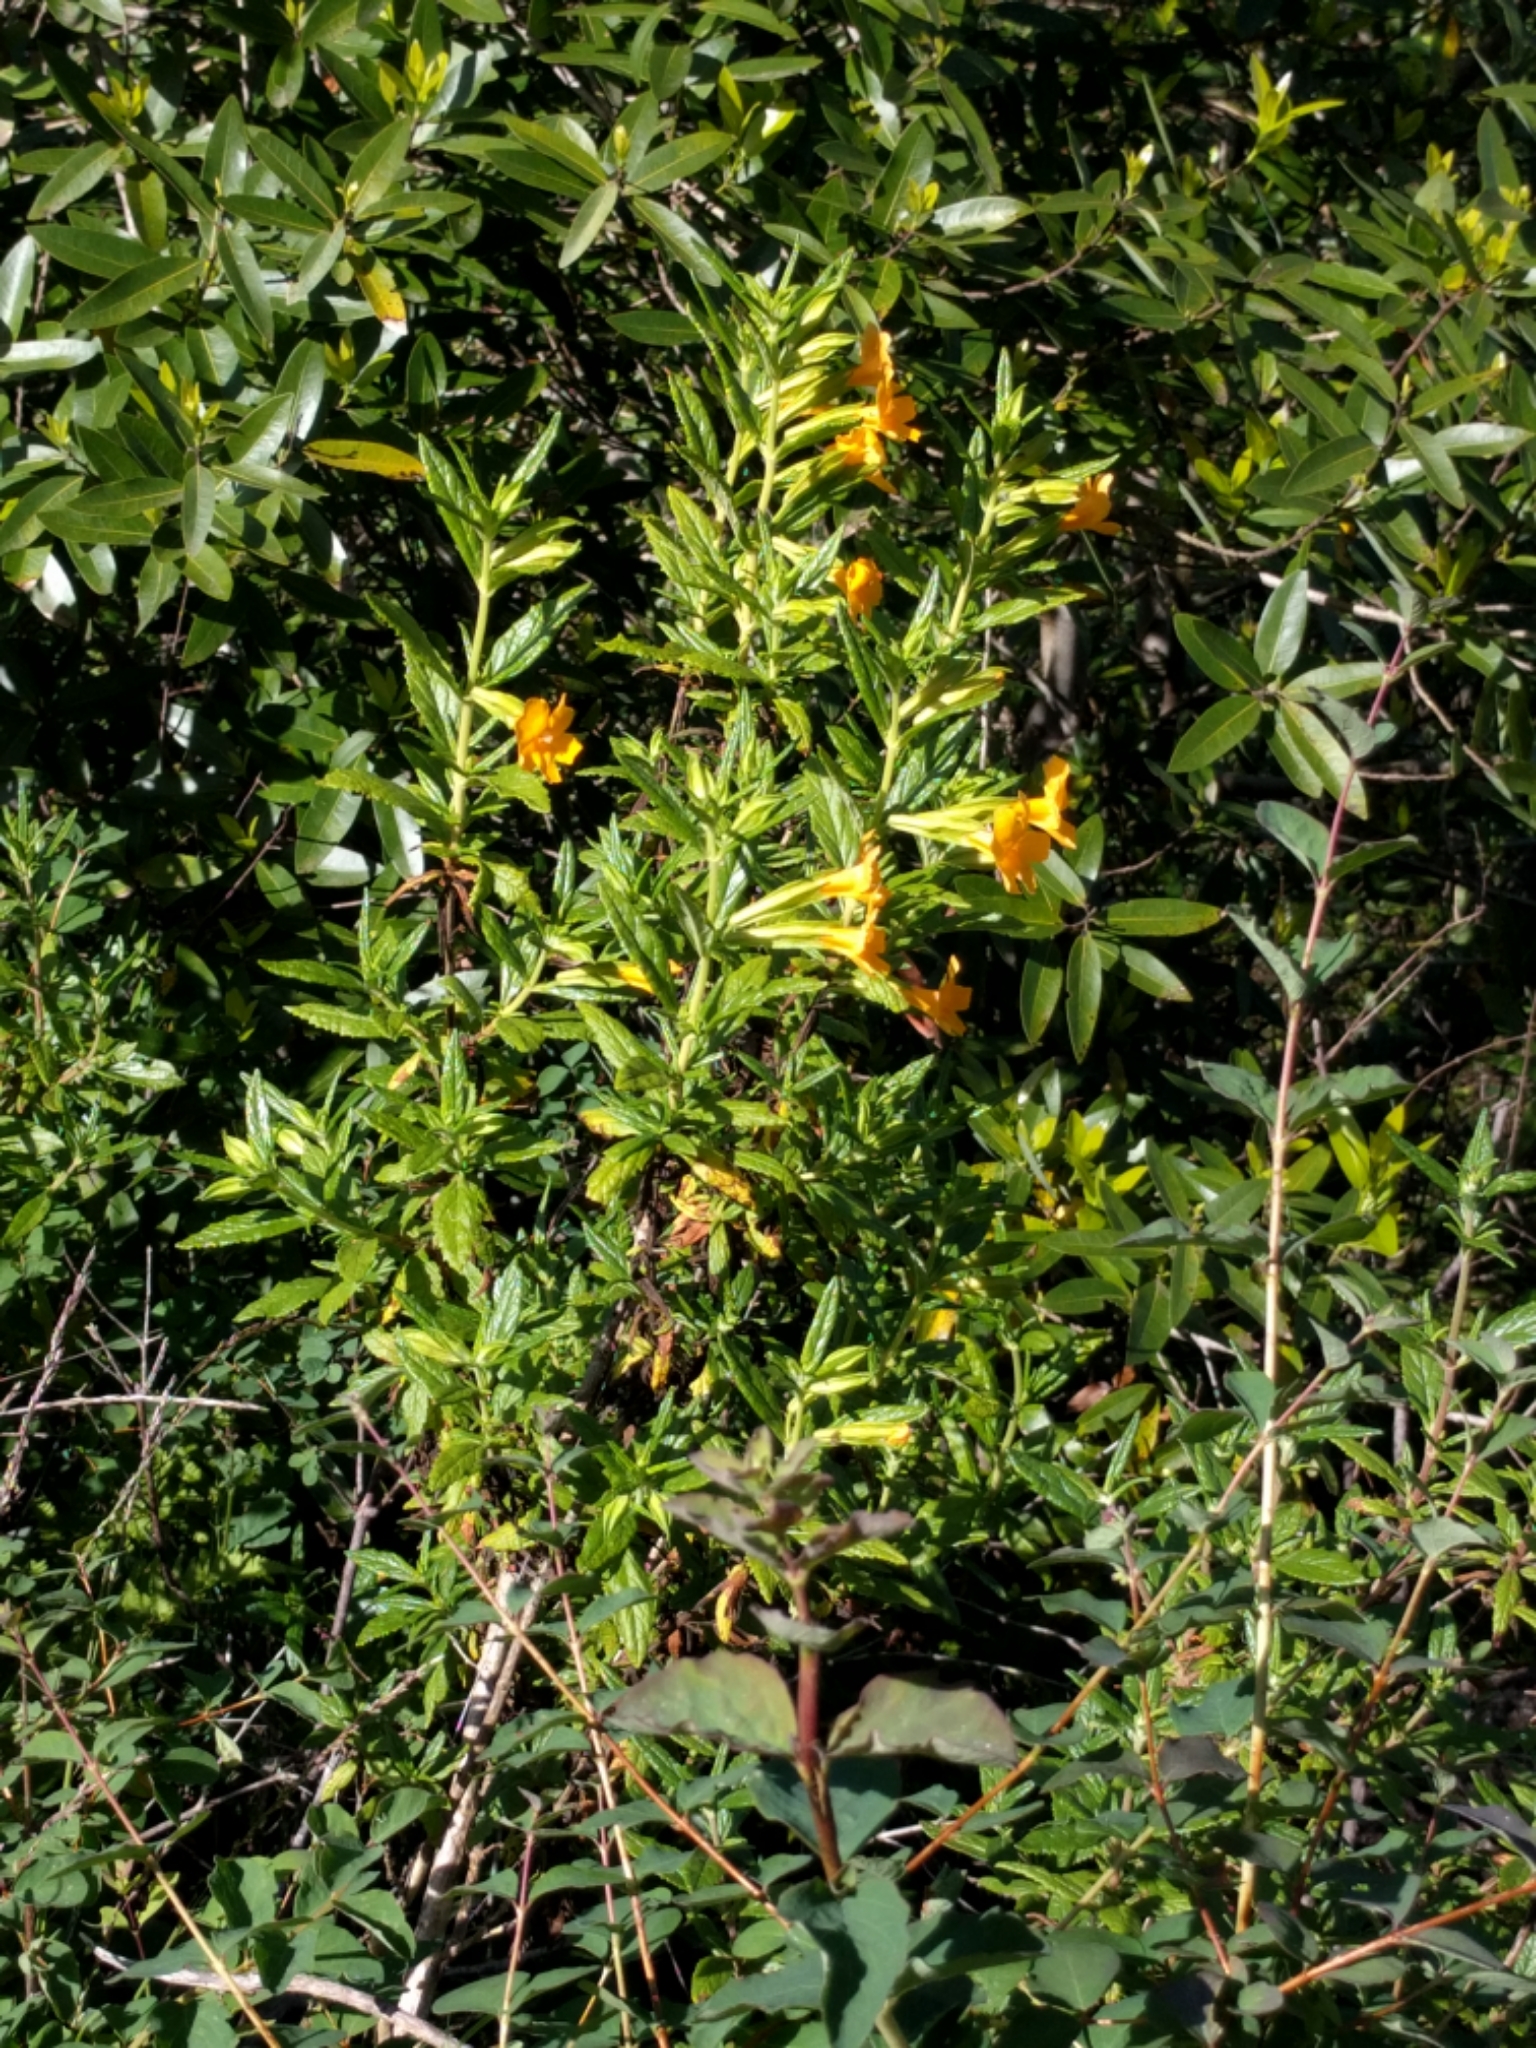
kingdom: Plantae
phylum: Tracheophyta
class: Magnoliopsida
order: Lamiales
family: Phrymaceae
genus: Diplacus
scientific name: Diplacus aurantiacus
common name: Bush monkey-flower
